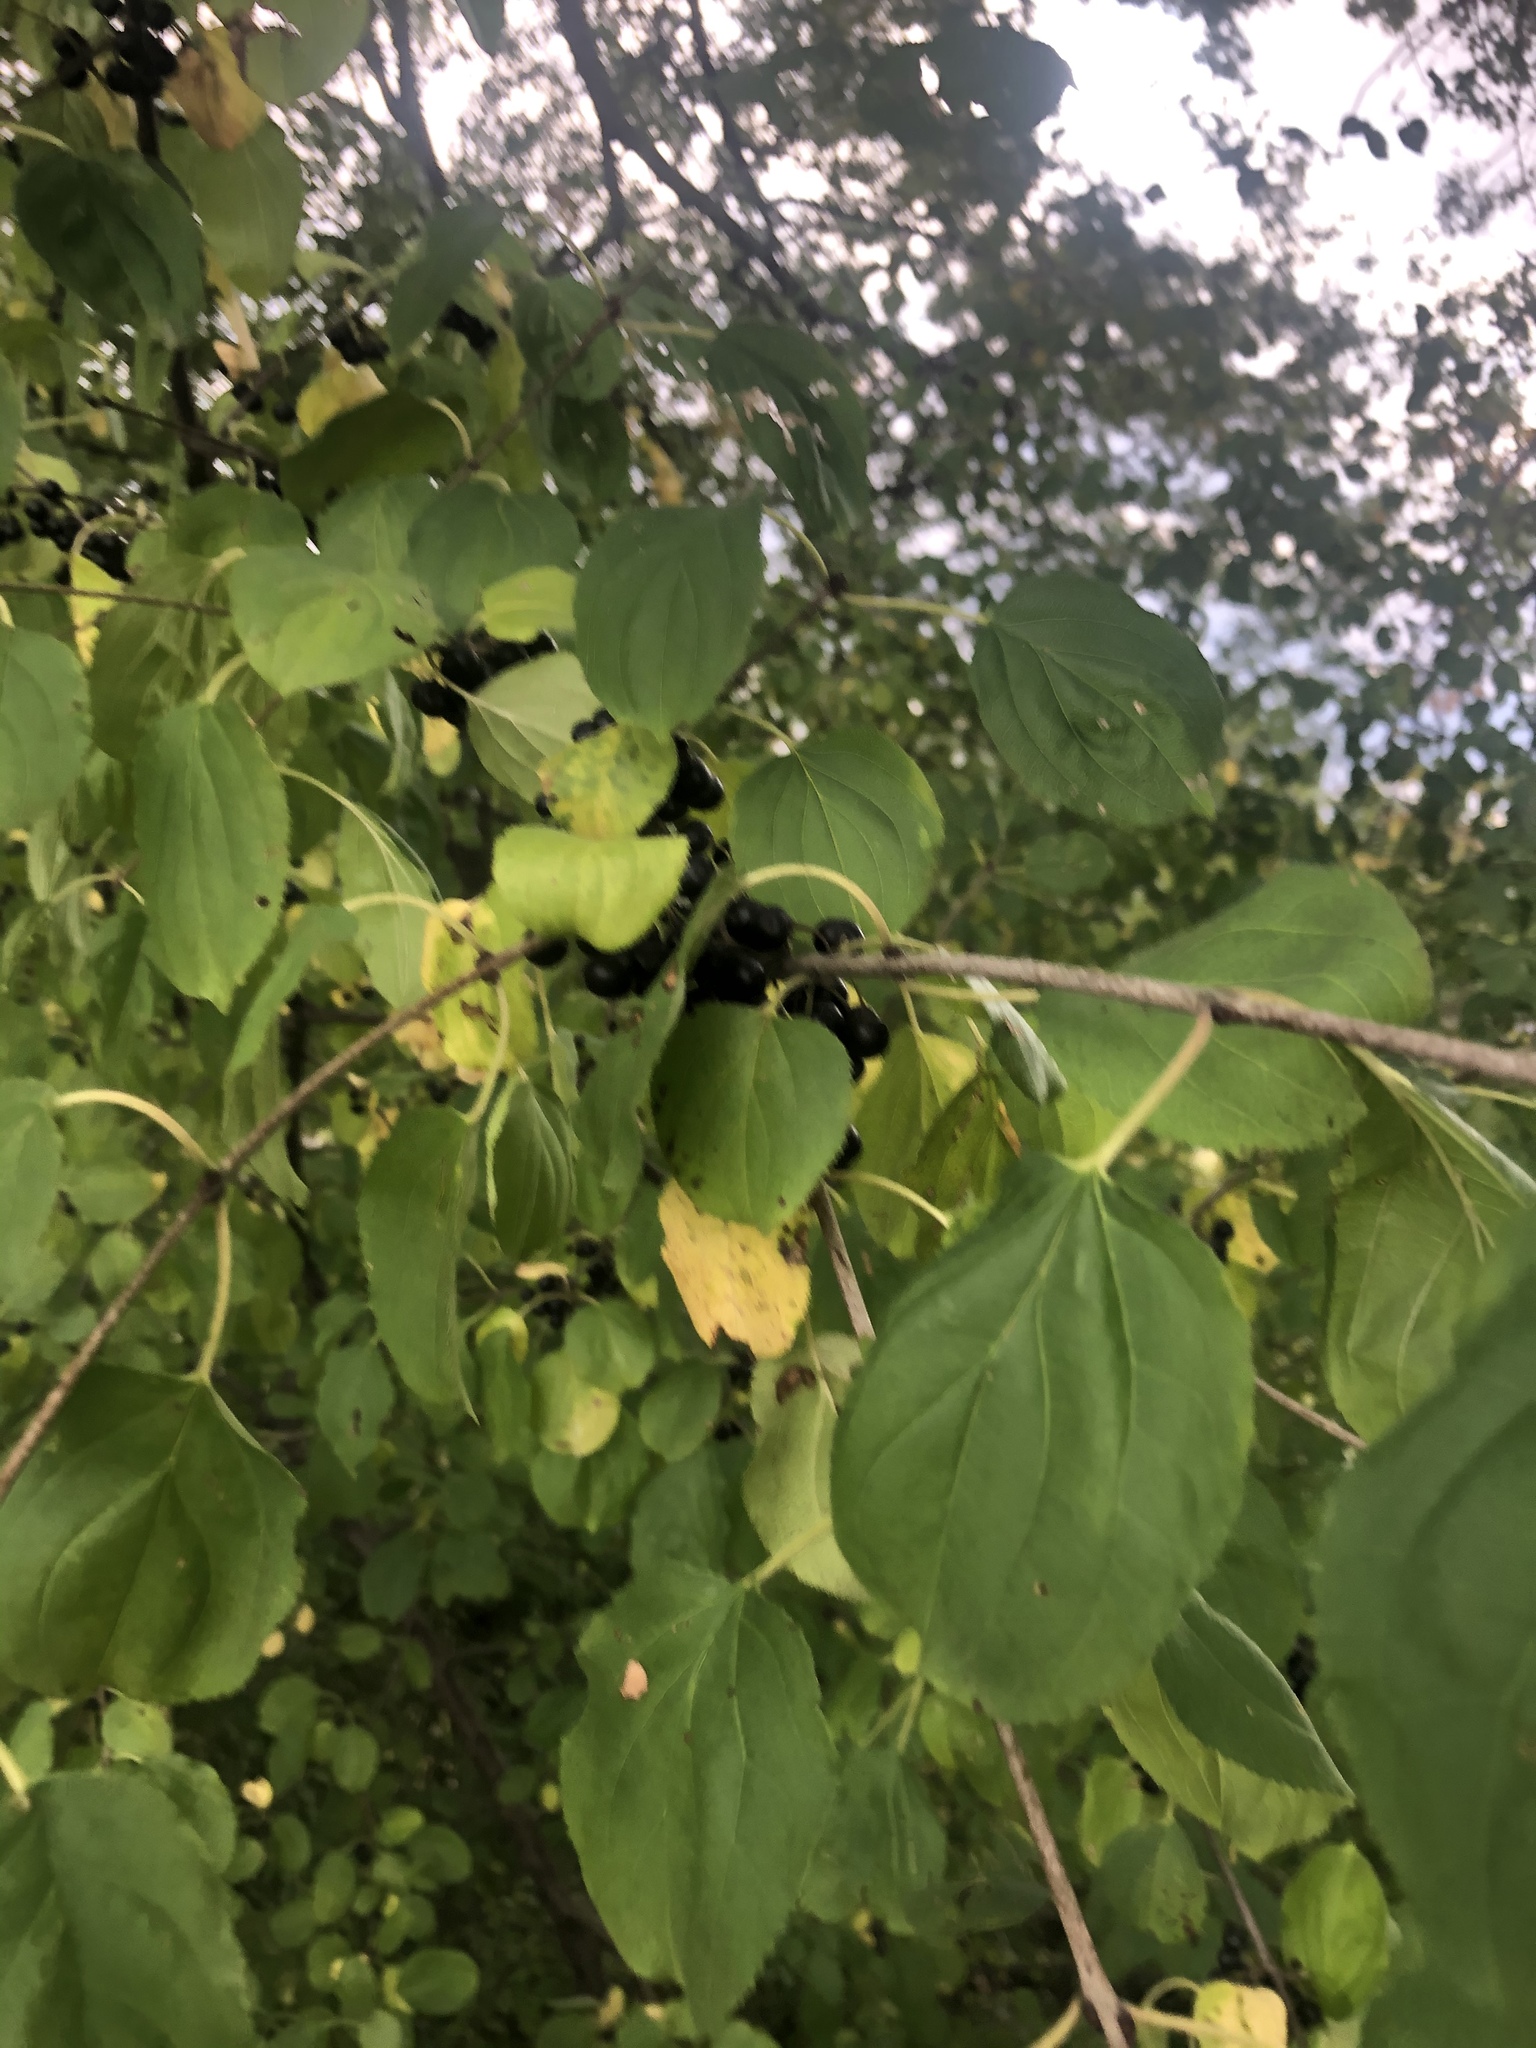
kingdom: Plantae
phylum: Tracheophyta
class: Magnoliopsida
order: Rosales
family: Rhamnaceae
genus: Rhamnus
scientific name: Rhamnus cathartica
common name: Common buckthorn
